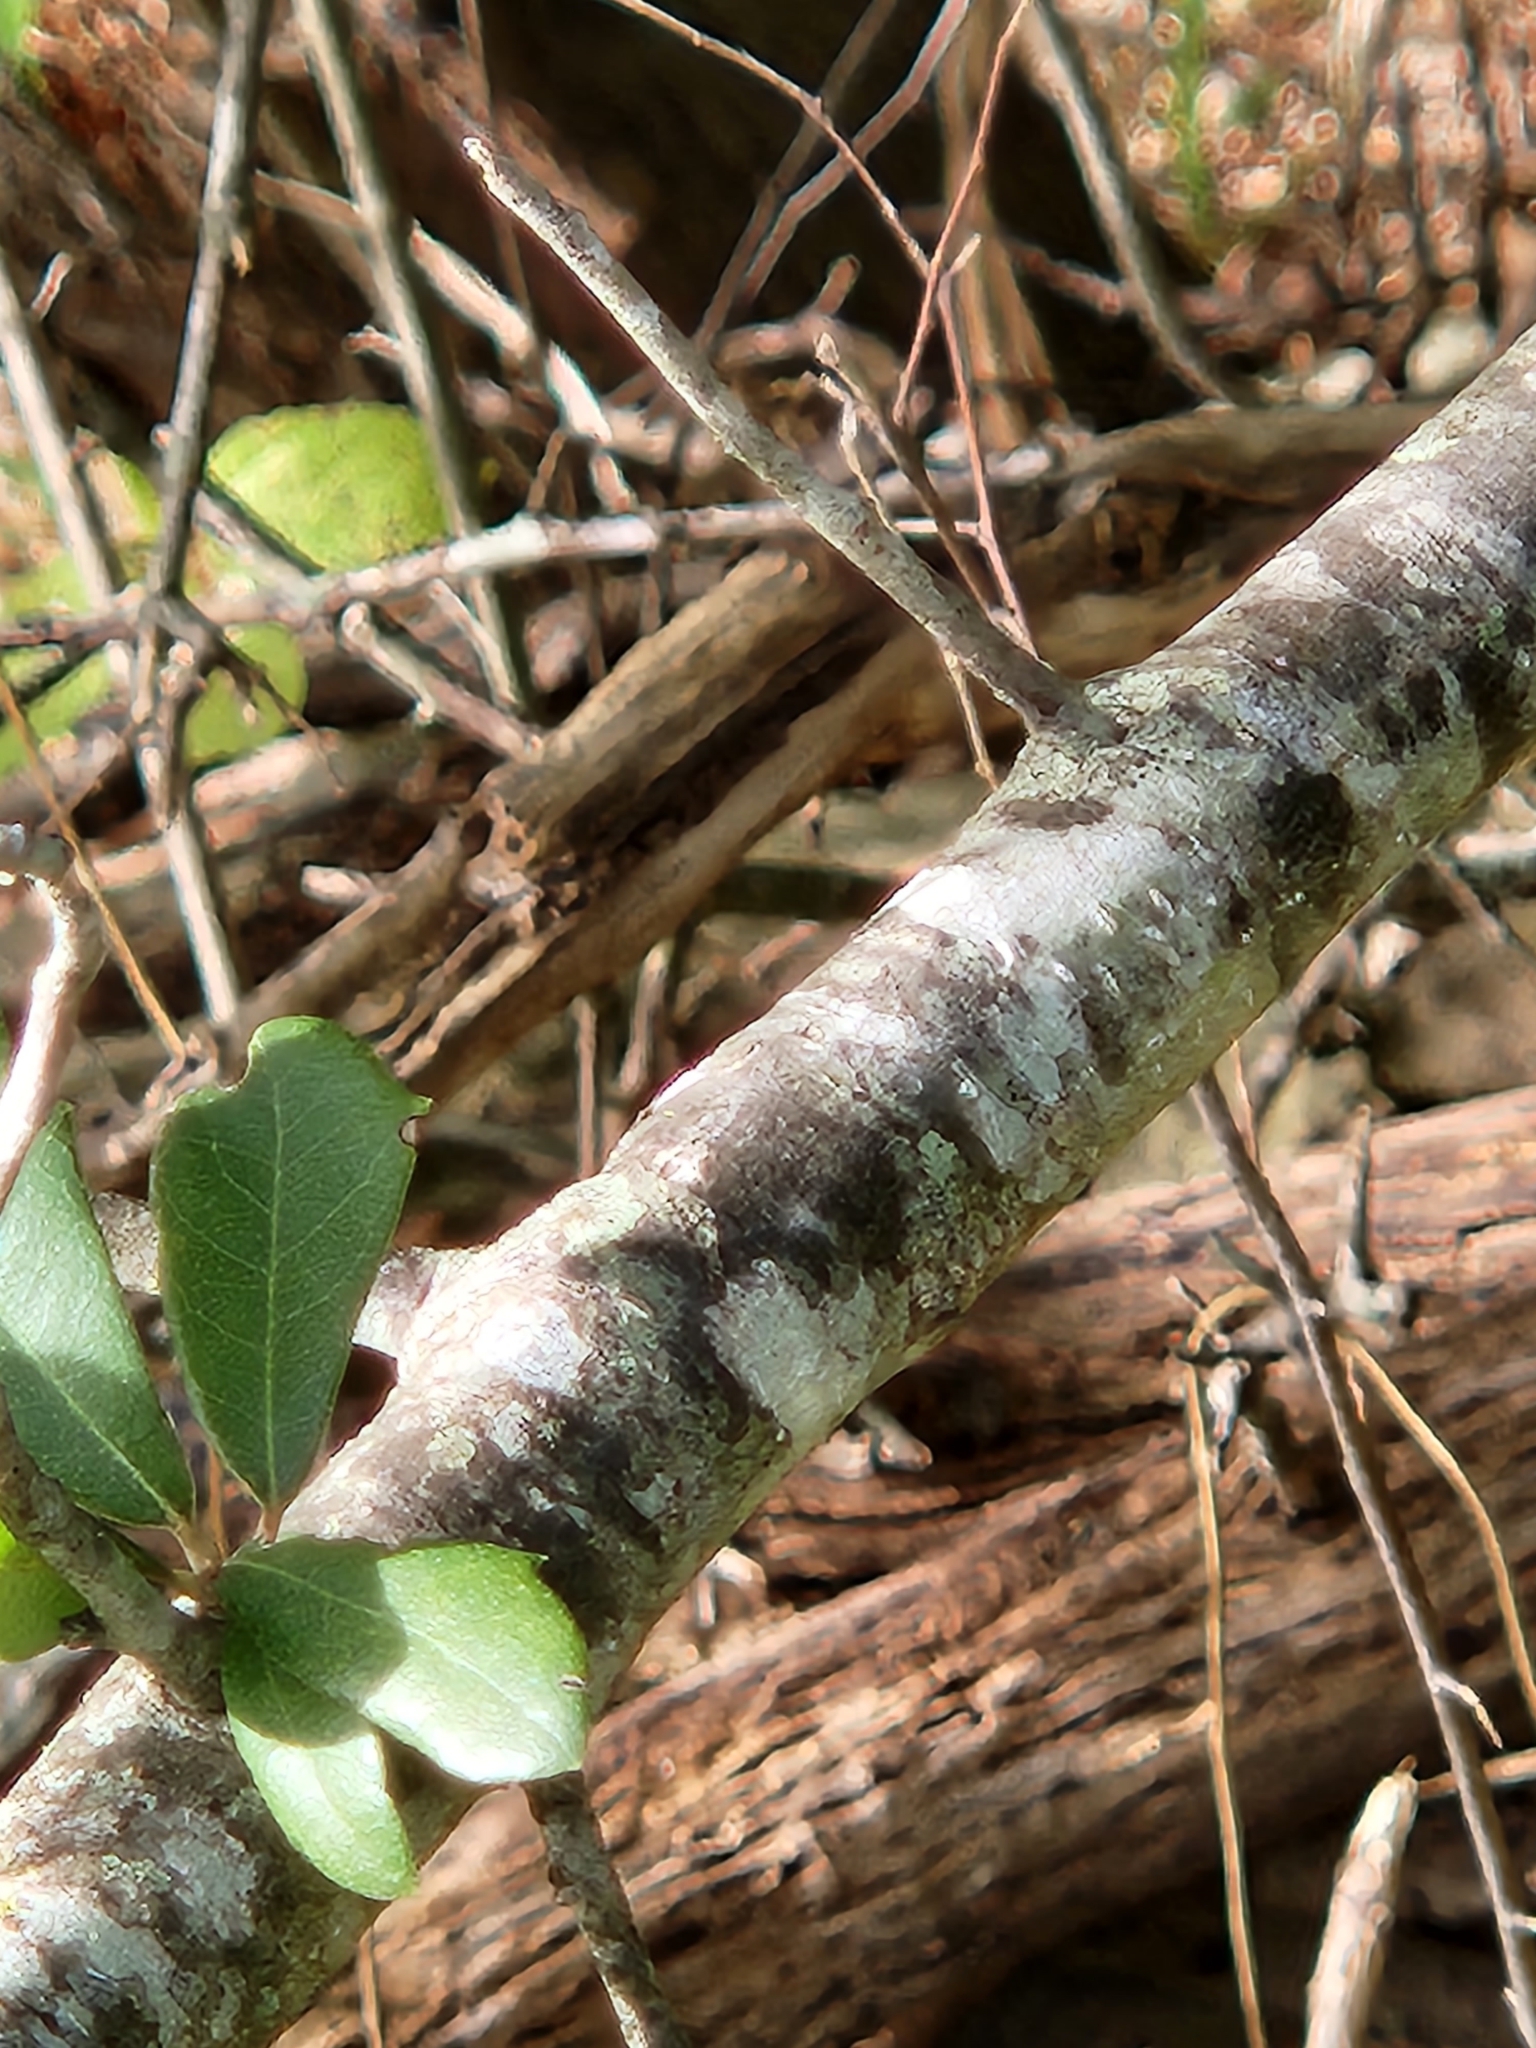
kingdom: Plantae
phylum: Tracheophyta
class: Magnoliopsida
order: Fagales
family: Fagaceae
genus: Quercus
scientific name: Quercus fusiformis
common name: Texas live oak
